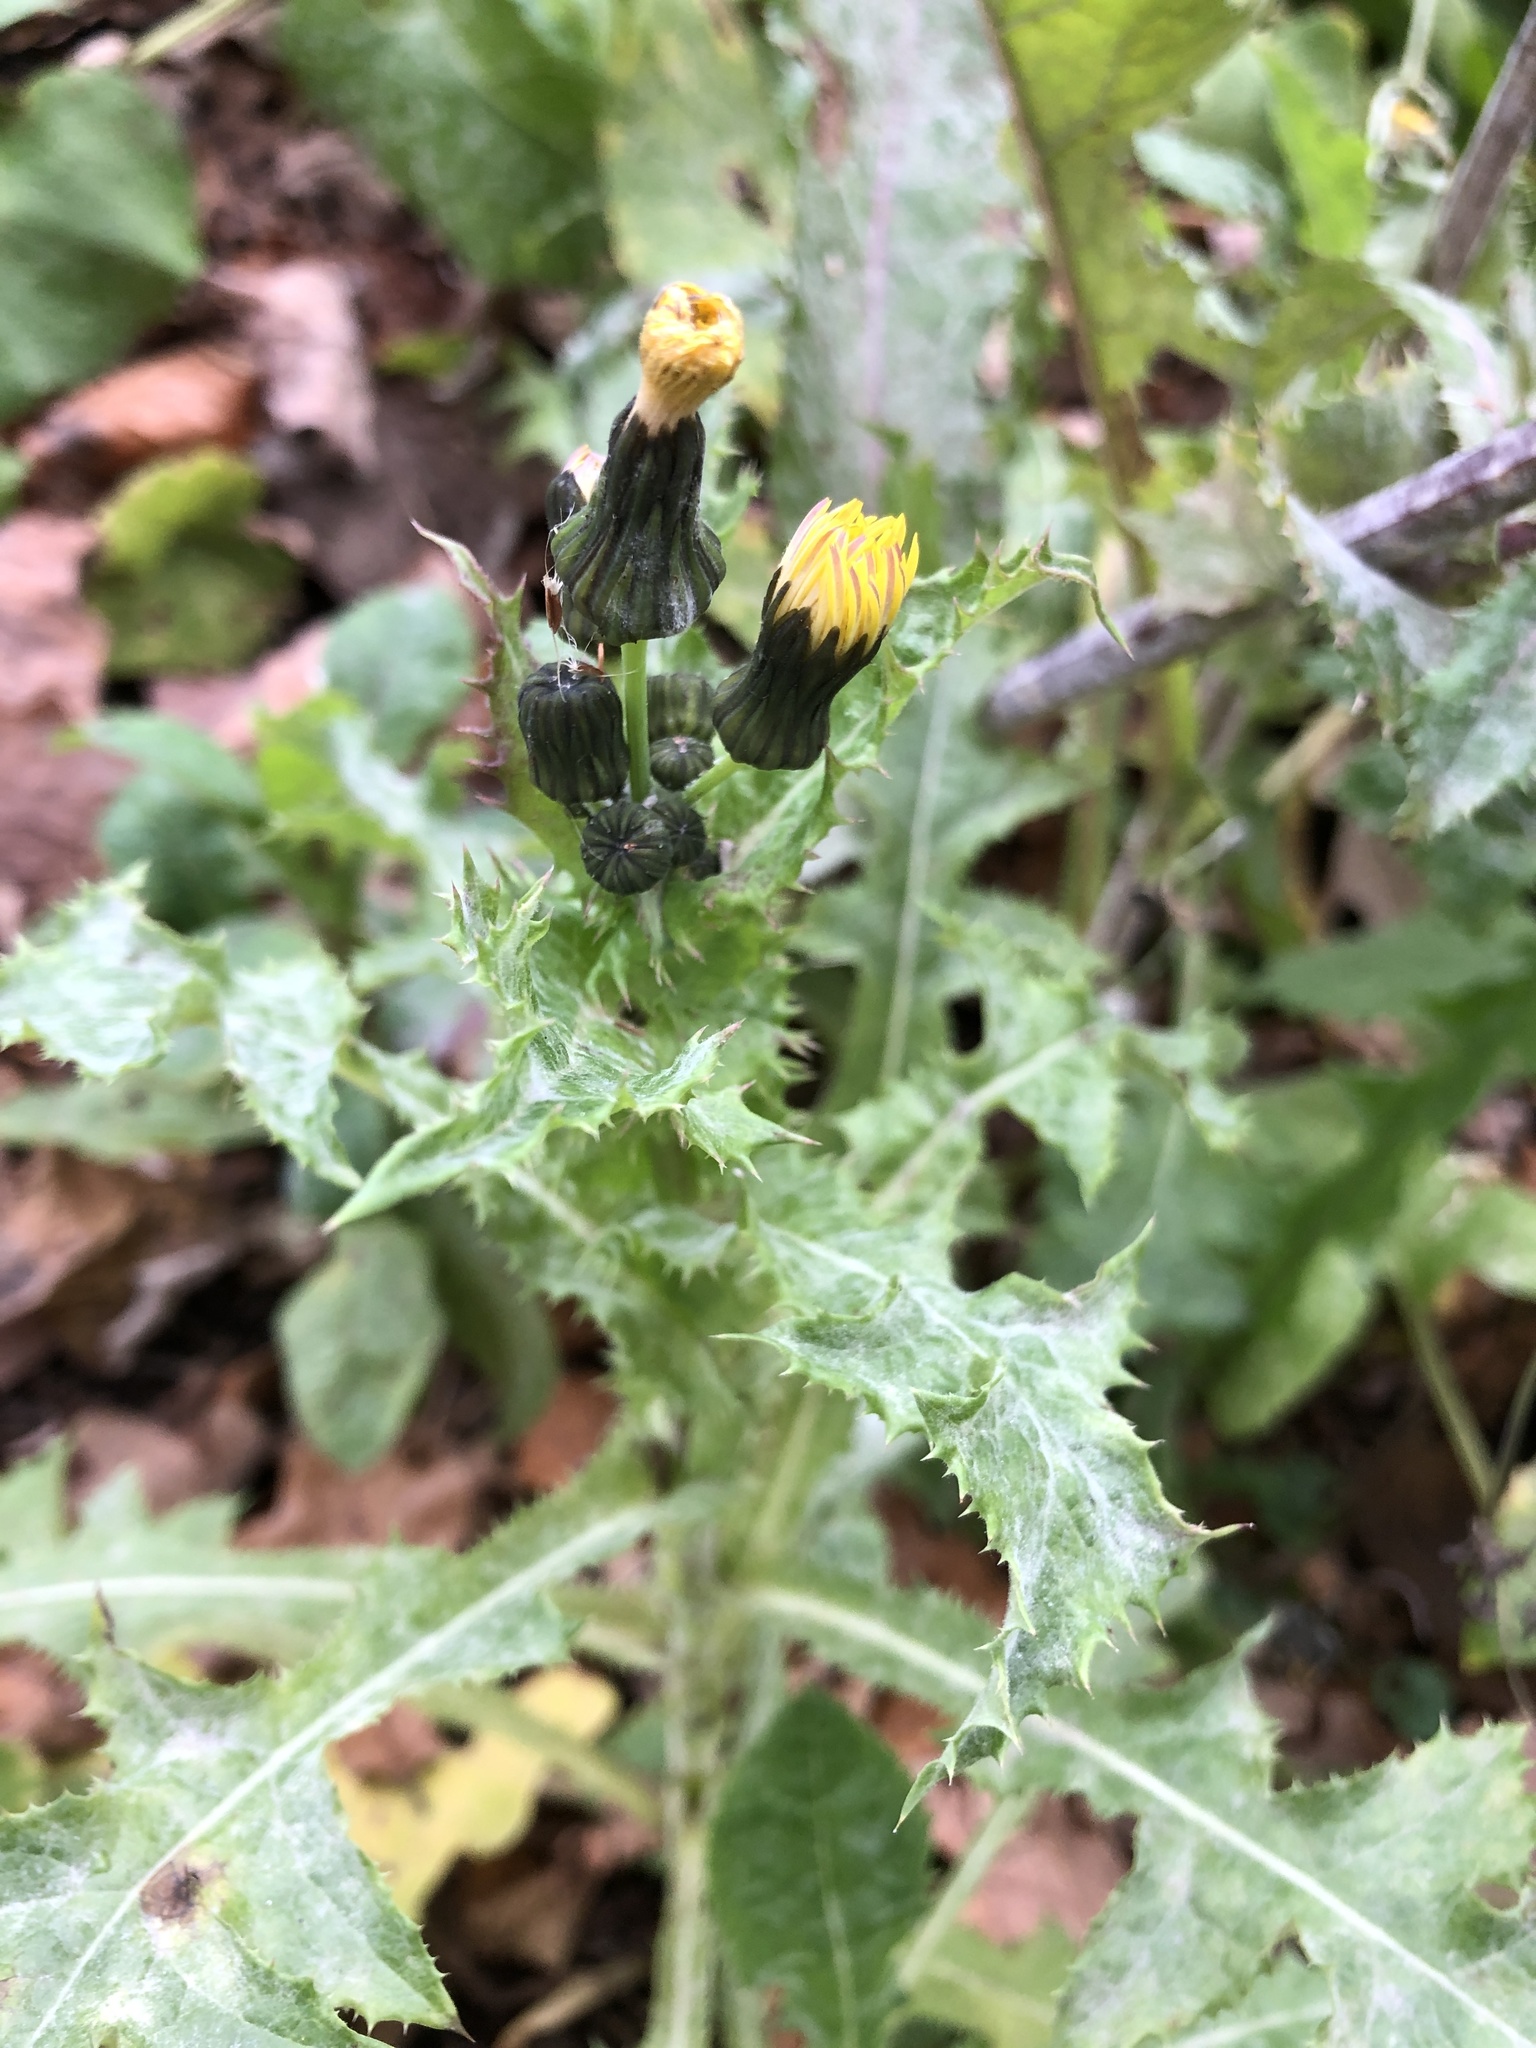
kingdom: Plantae
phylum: Tracheophyta
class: Magnoliopsida
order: Asterales
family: Asteraceae
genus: Sonchus
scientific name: Sonchus asper
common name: Prickly sow-thistle
